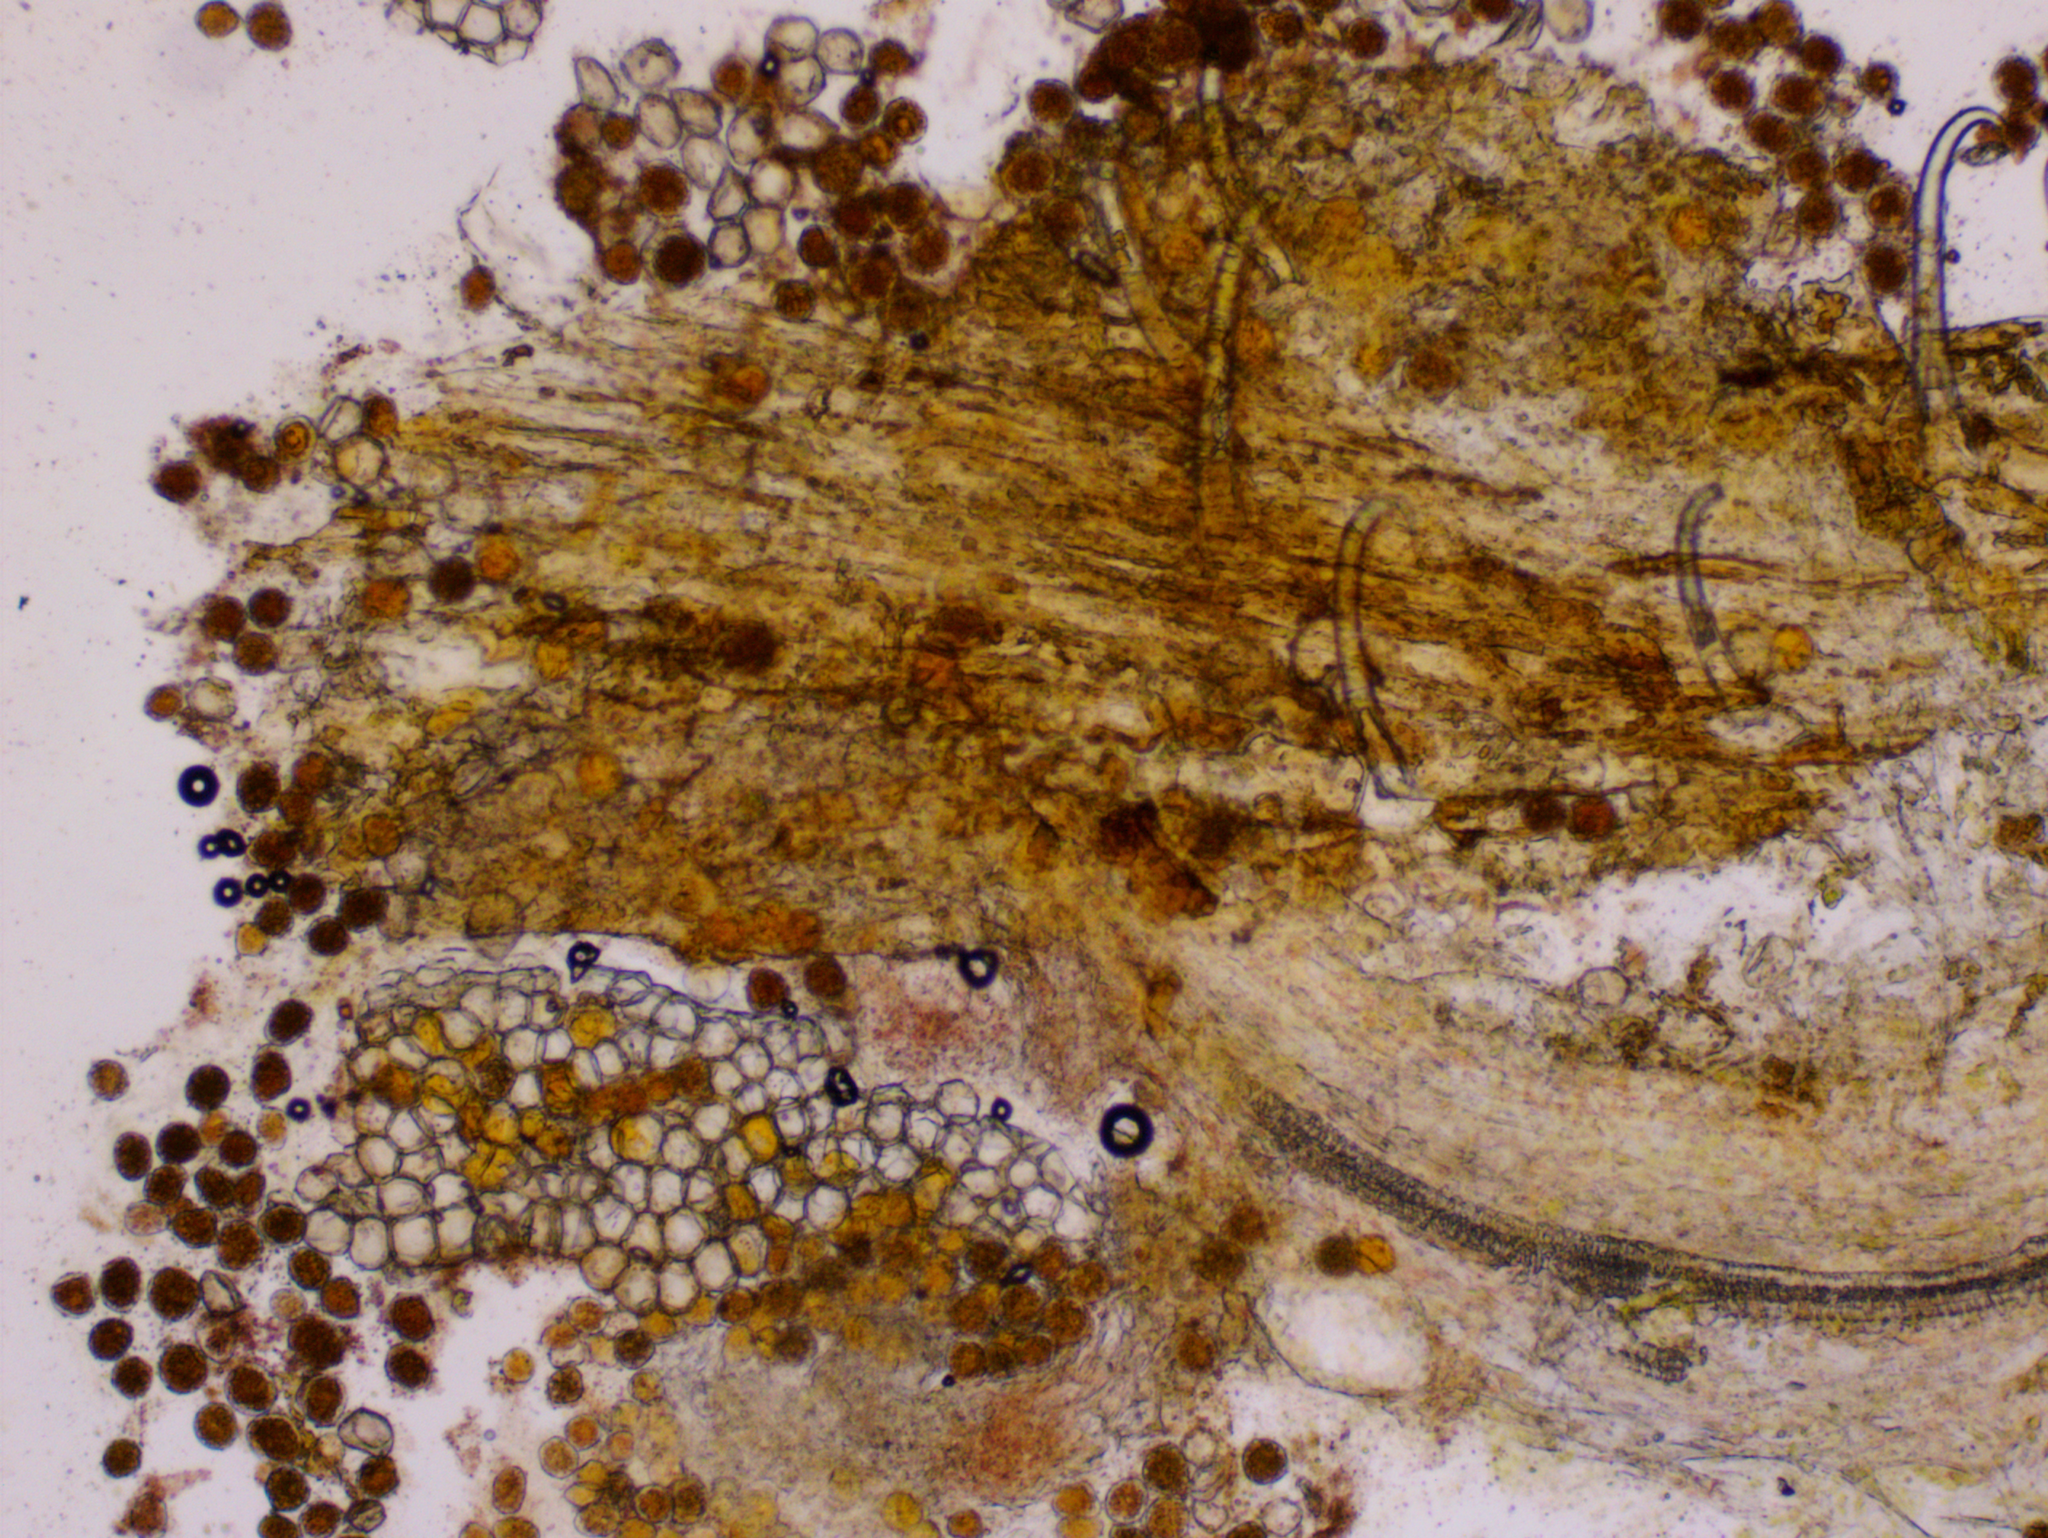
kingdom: Fungi
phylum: Basidiomycota
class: Pucciniomycetes
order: Pucciniales
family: Pucciniaceae
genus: Puccinia
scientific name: Puccinia bromina
